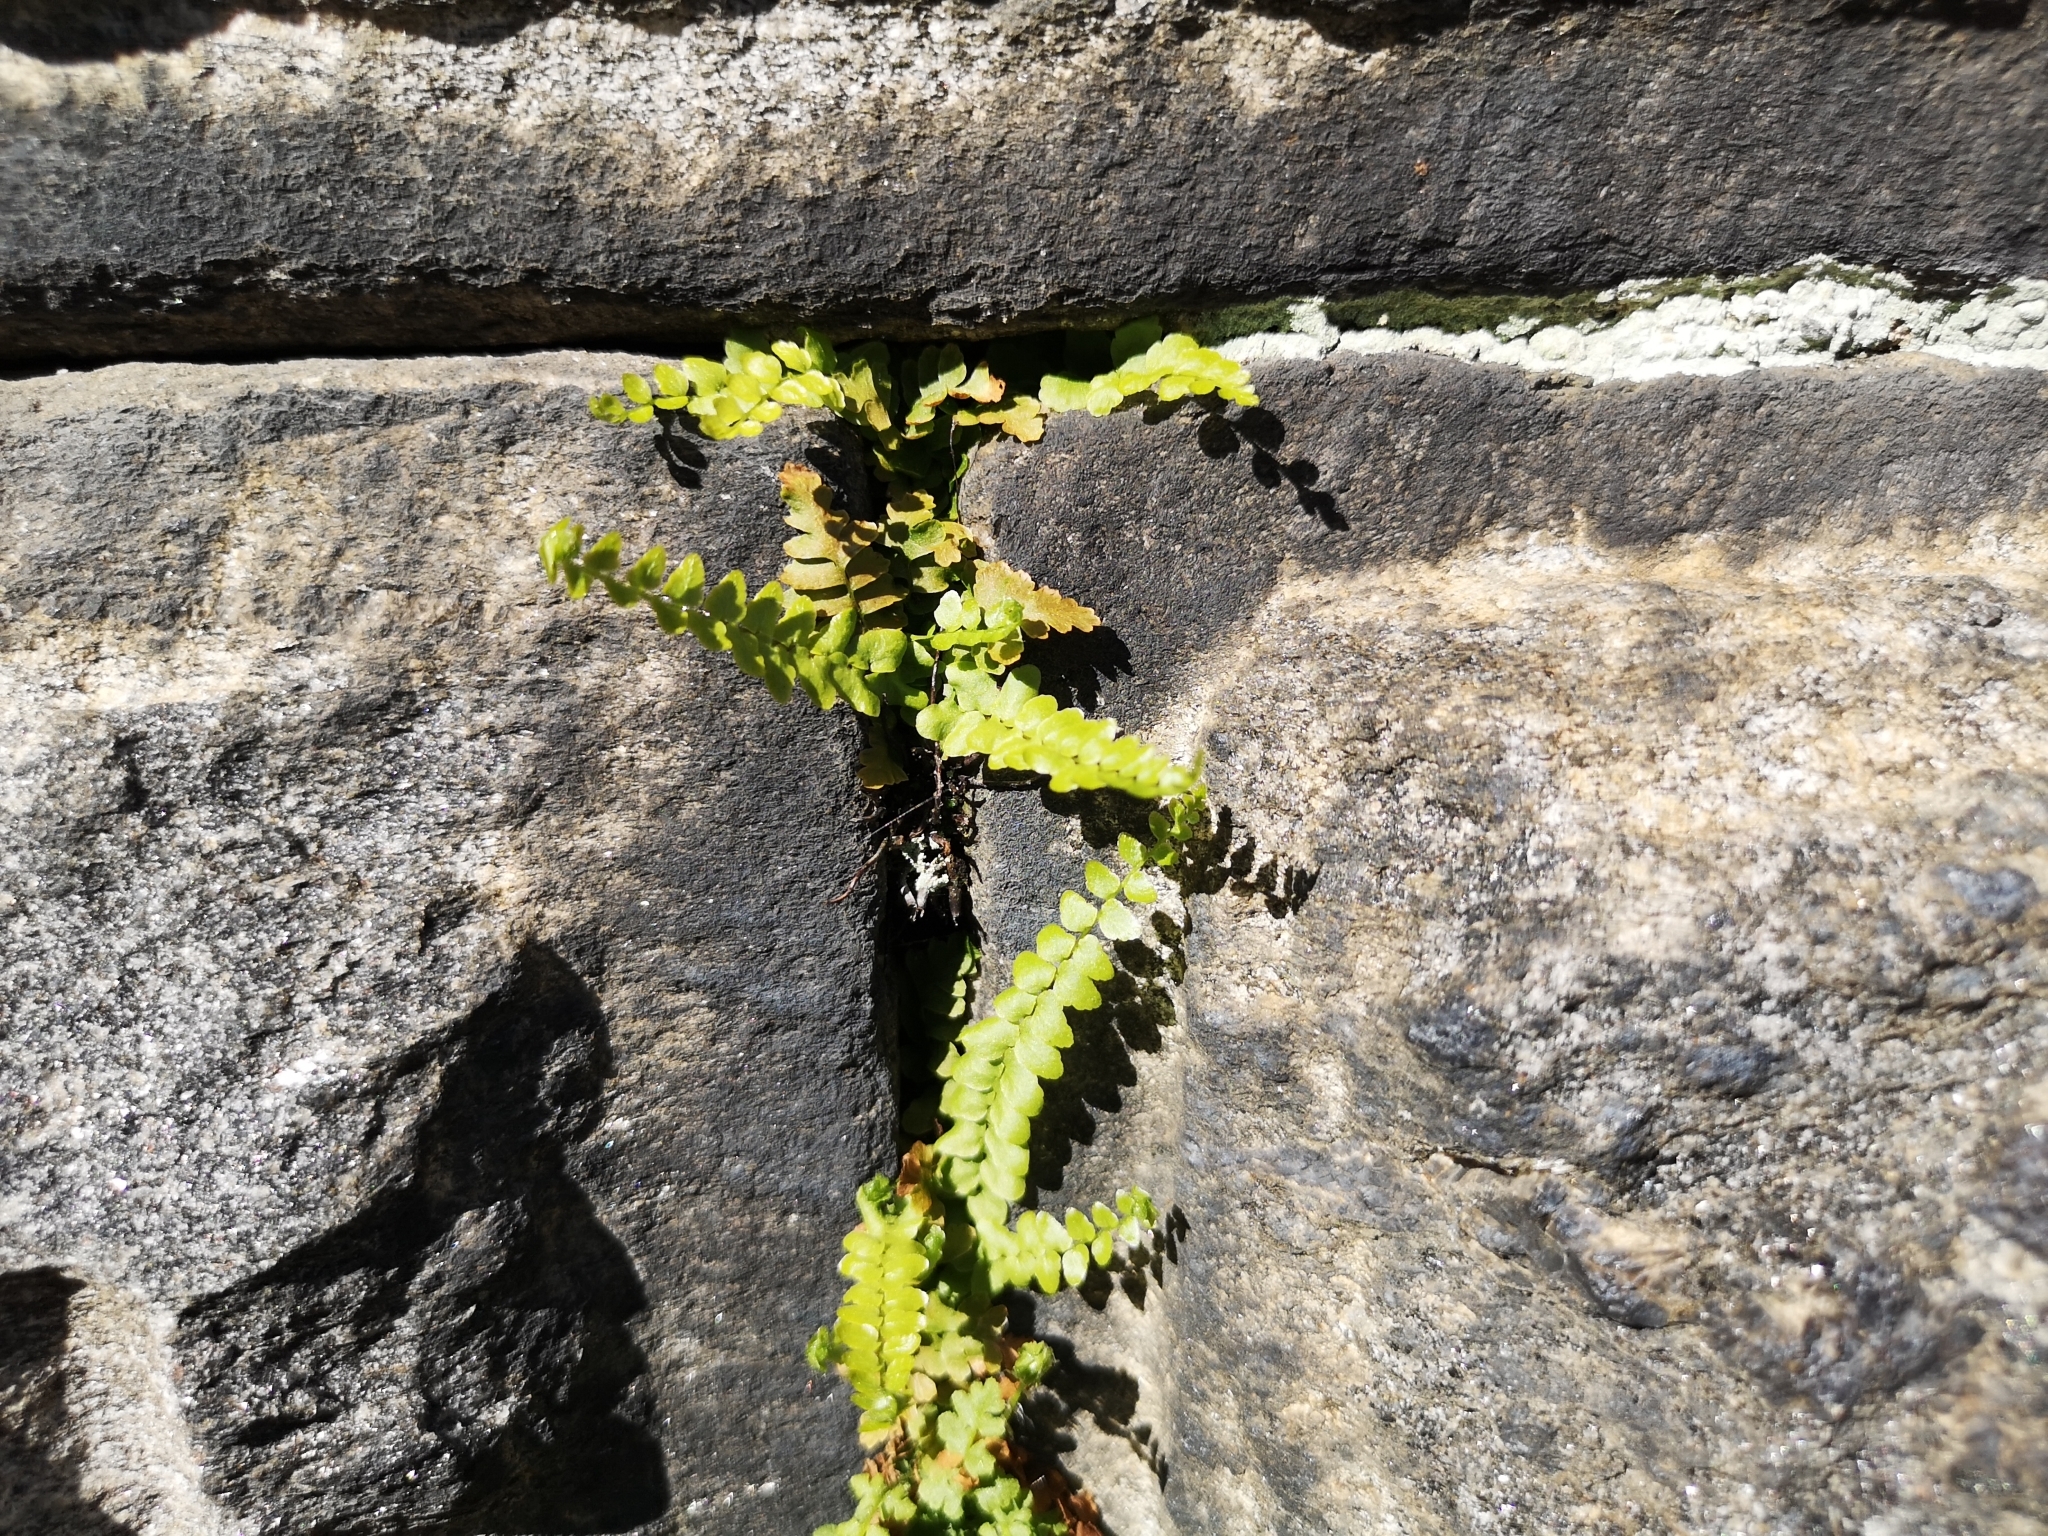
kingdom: Plantae
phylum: Tracheophyta
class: Polypodiopsida
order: Polypodiales
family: Aspleniaceae
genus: Asplenium
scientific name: Asplenium trichomanes
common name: Maidenhair spleenwort
